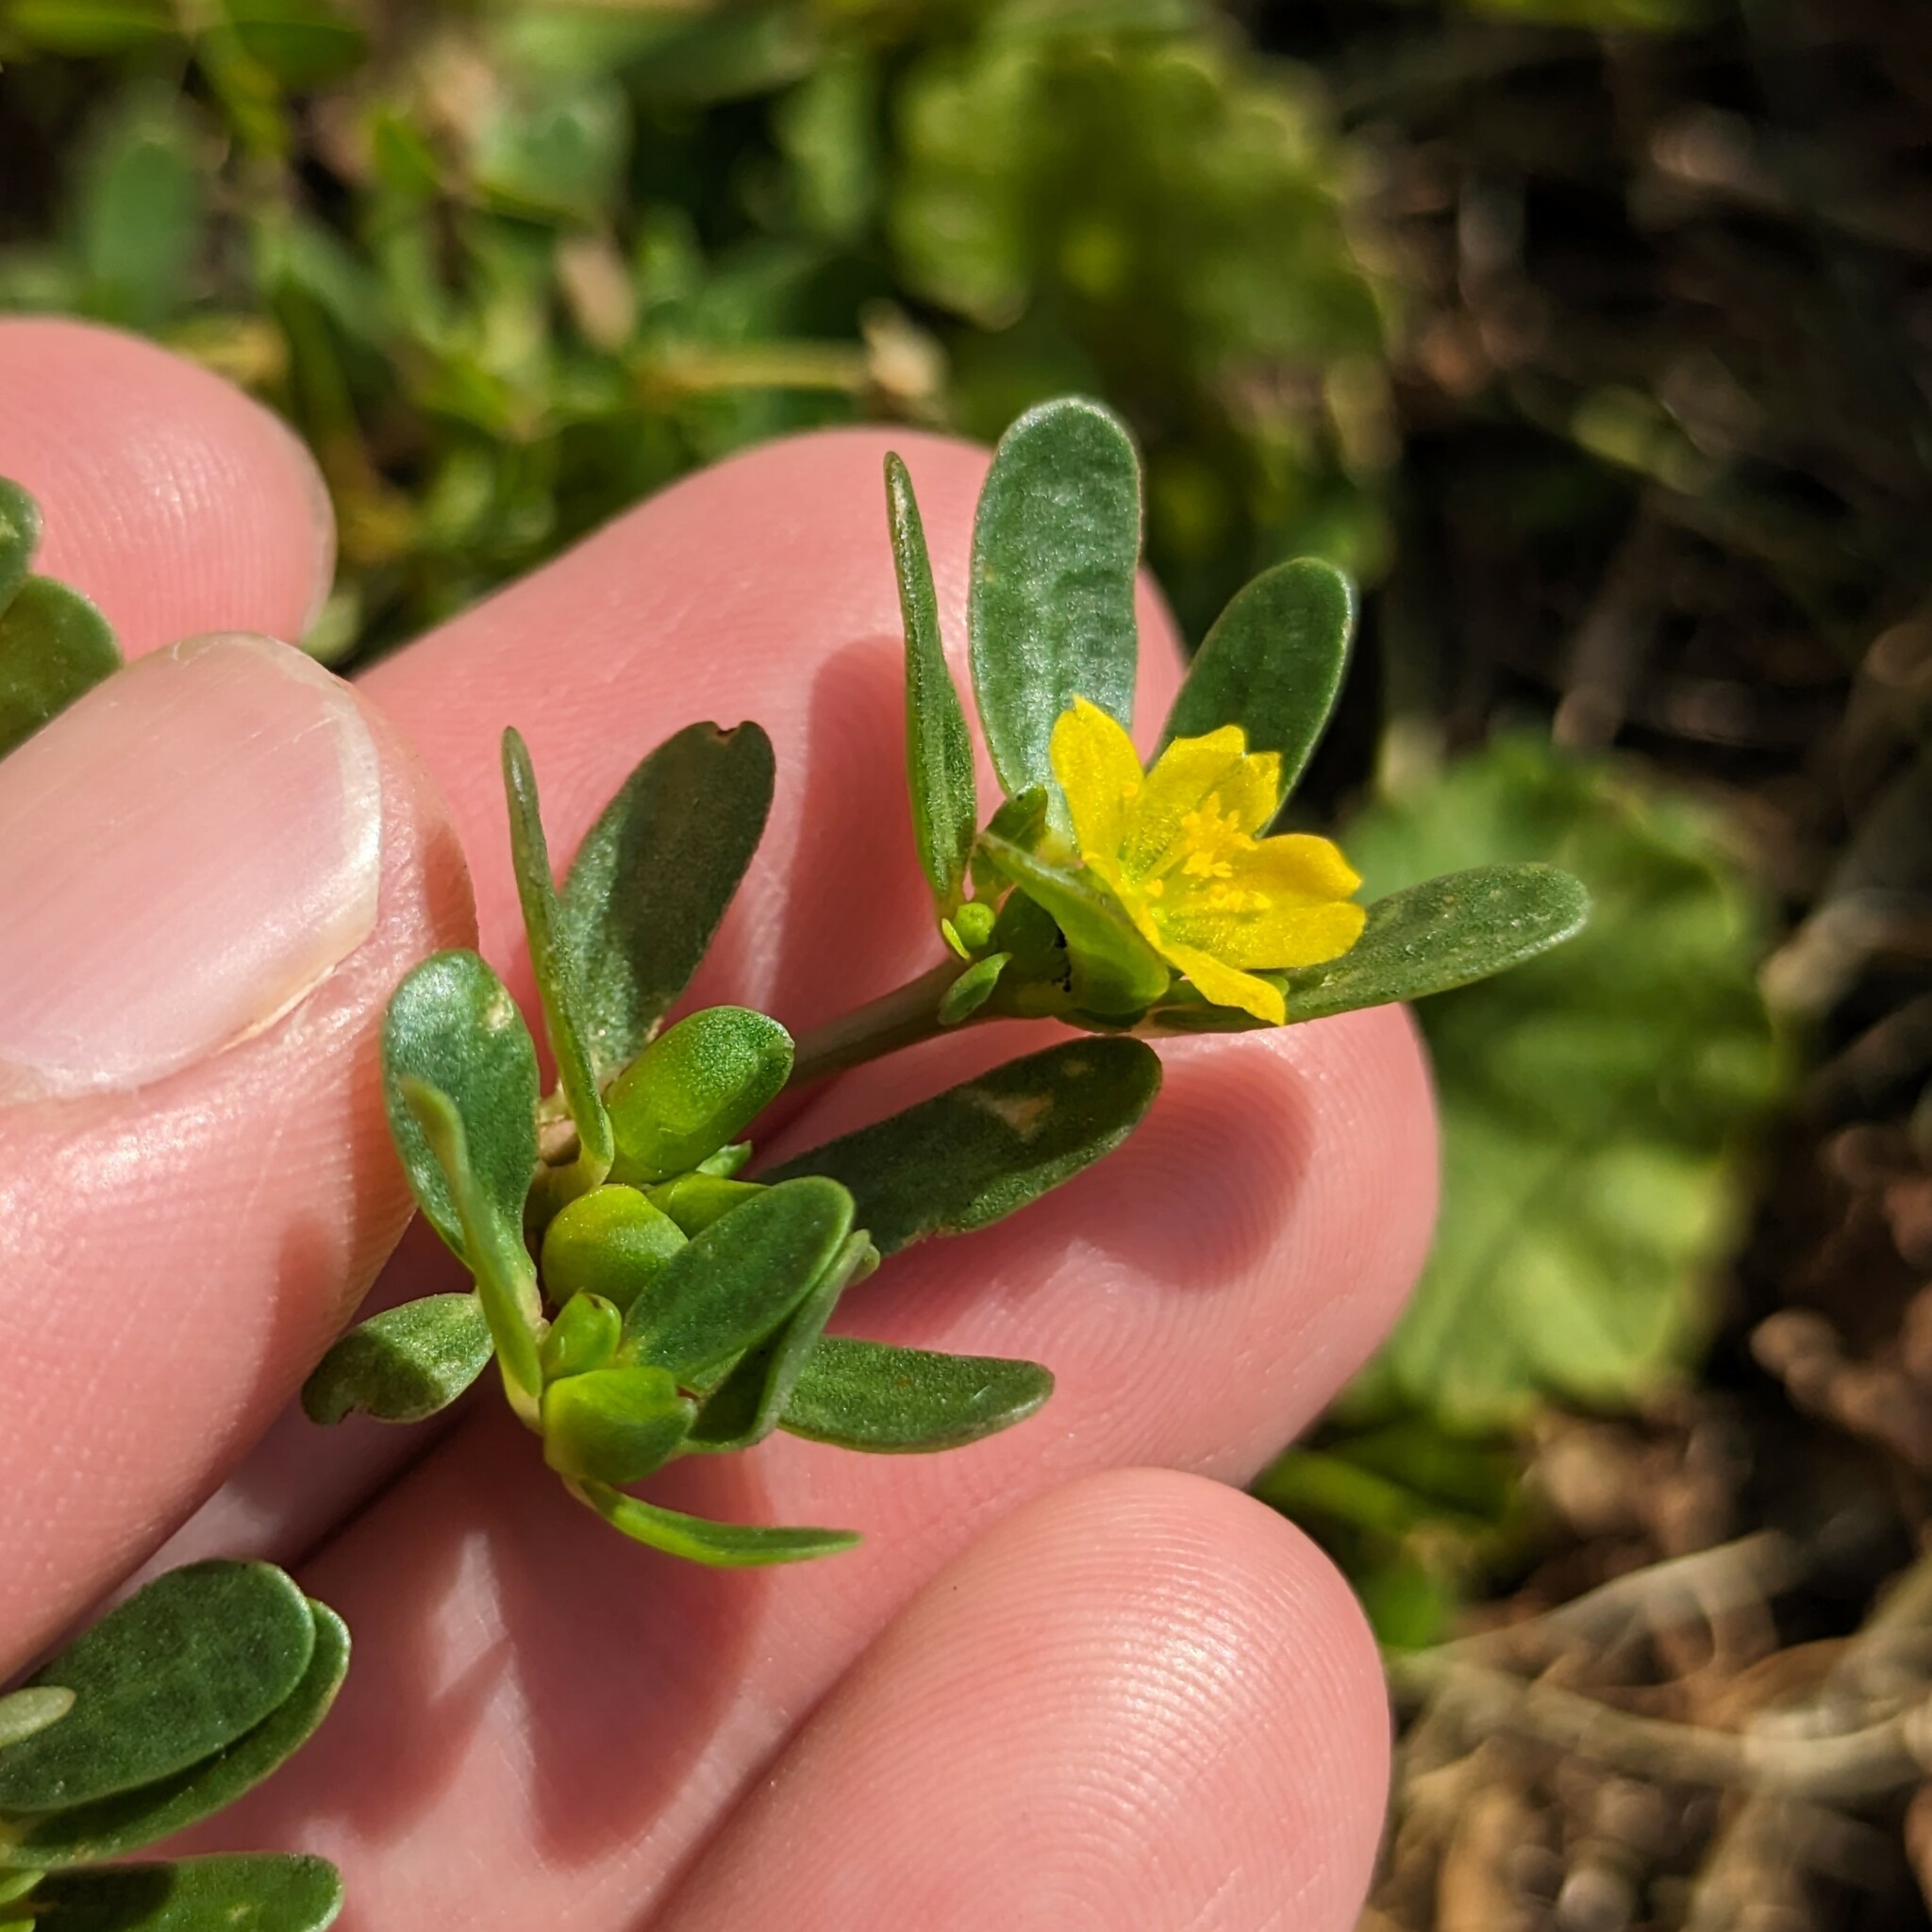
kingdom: Plantae
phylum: Tracheophyta
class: Magnoliopsida
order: Caryophyllales
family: Portulacaceae
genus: Portulaca
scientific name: Portulaca oleracea
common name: Common purslane
